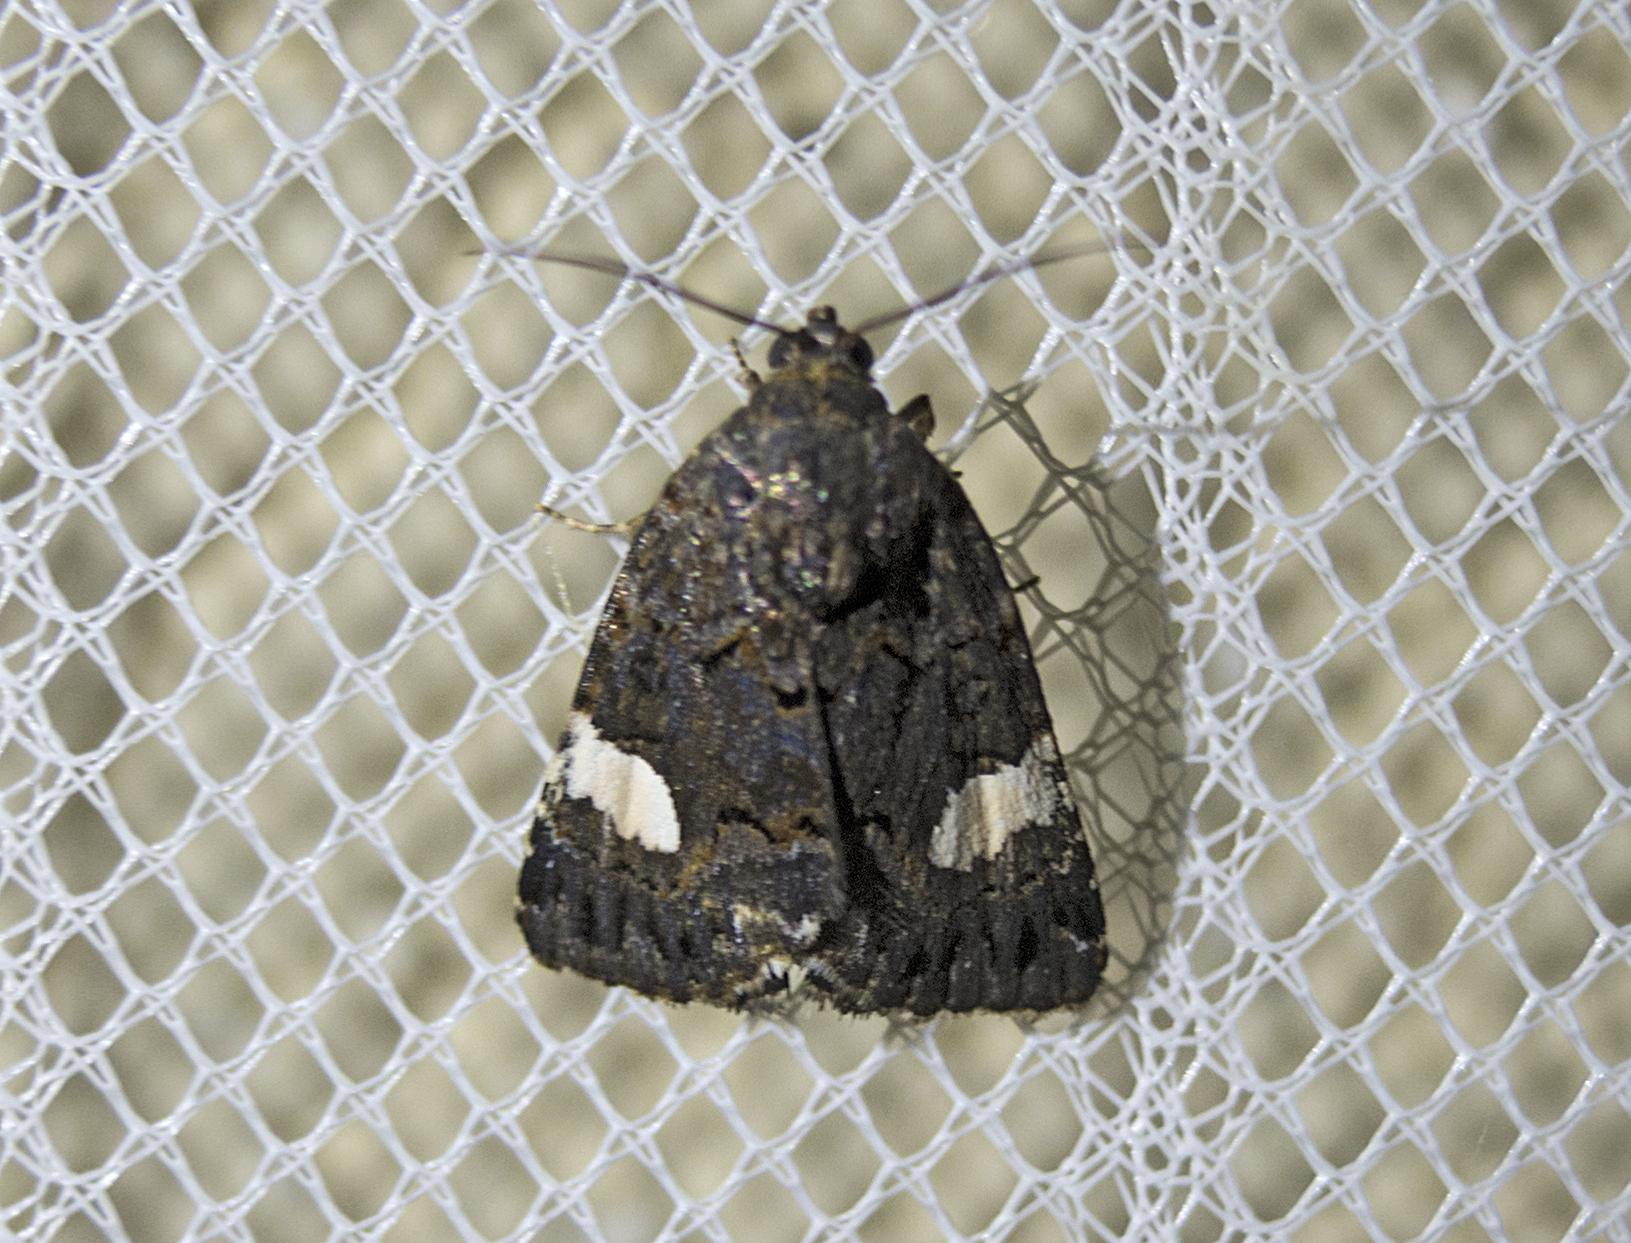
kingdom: Animalia
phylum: Arthropoda
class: Insecta
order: Lepidoptera
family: Erebidae
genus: Tyta
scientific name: Tyta luctuosa
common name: Four-spotted
